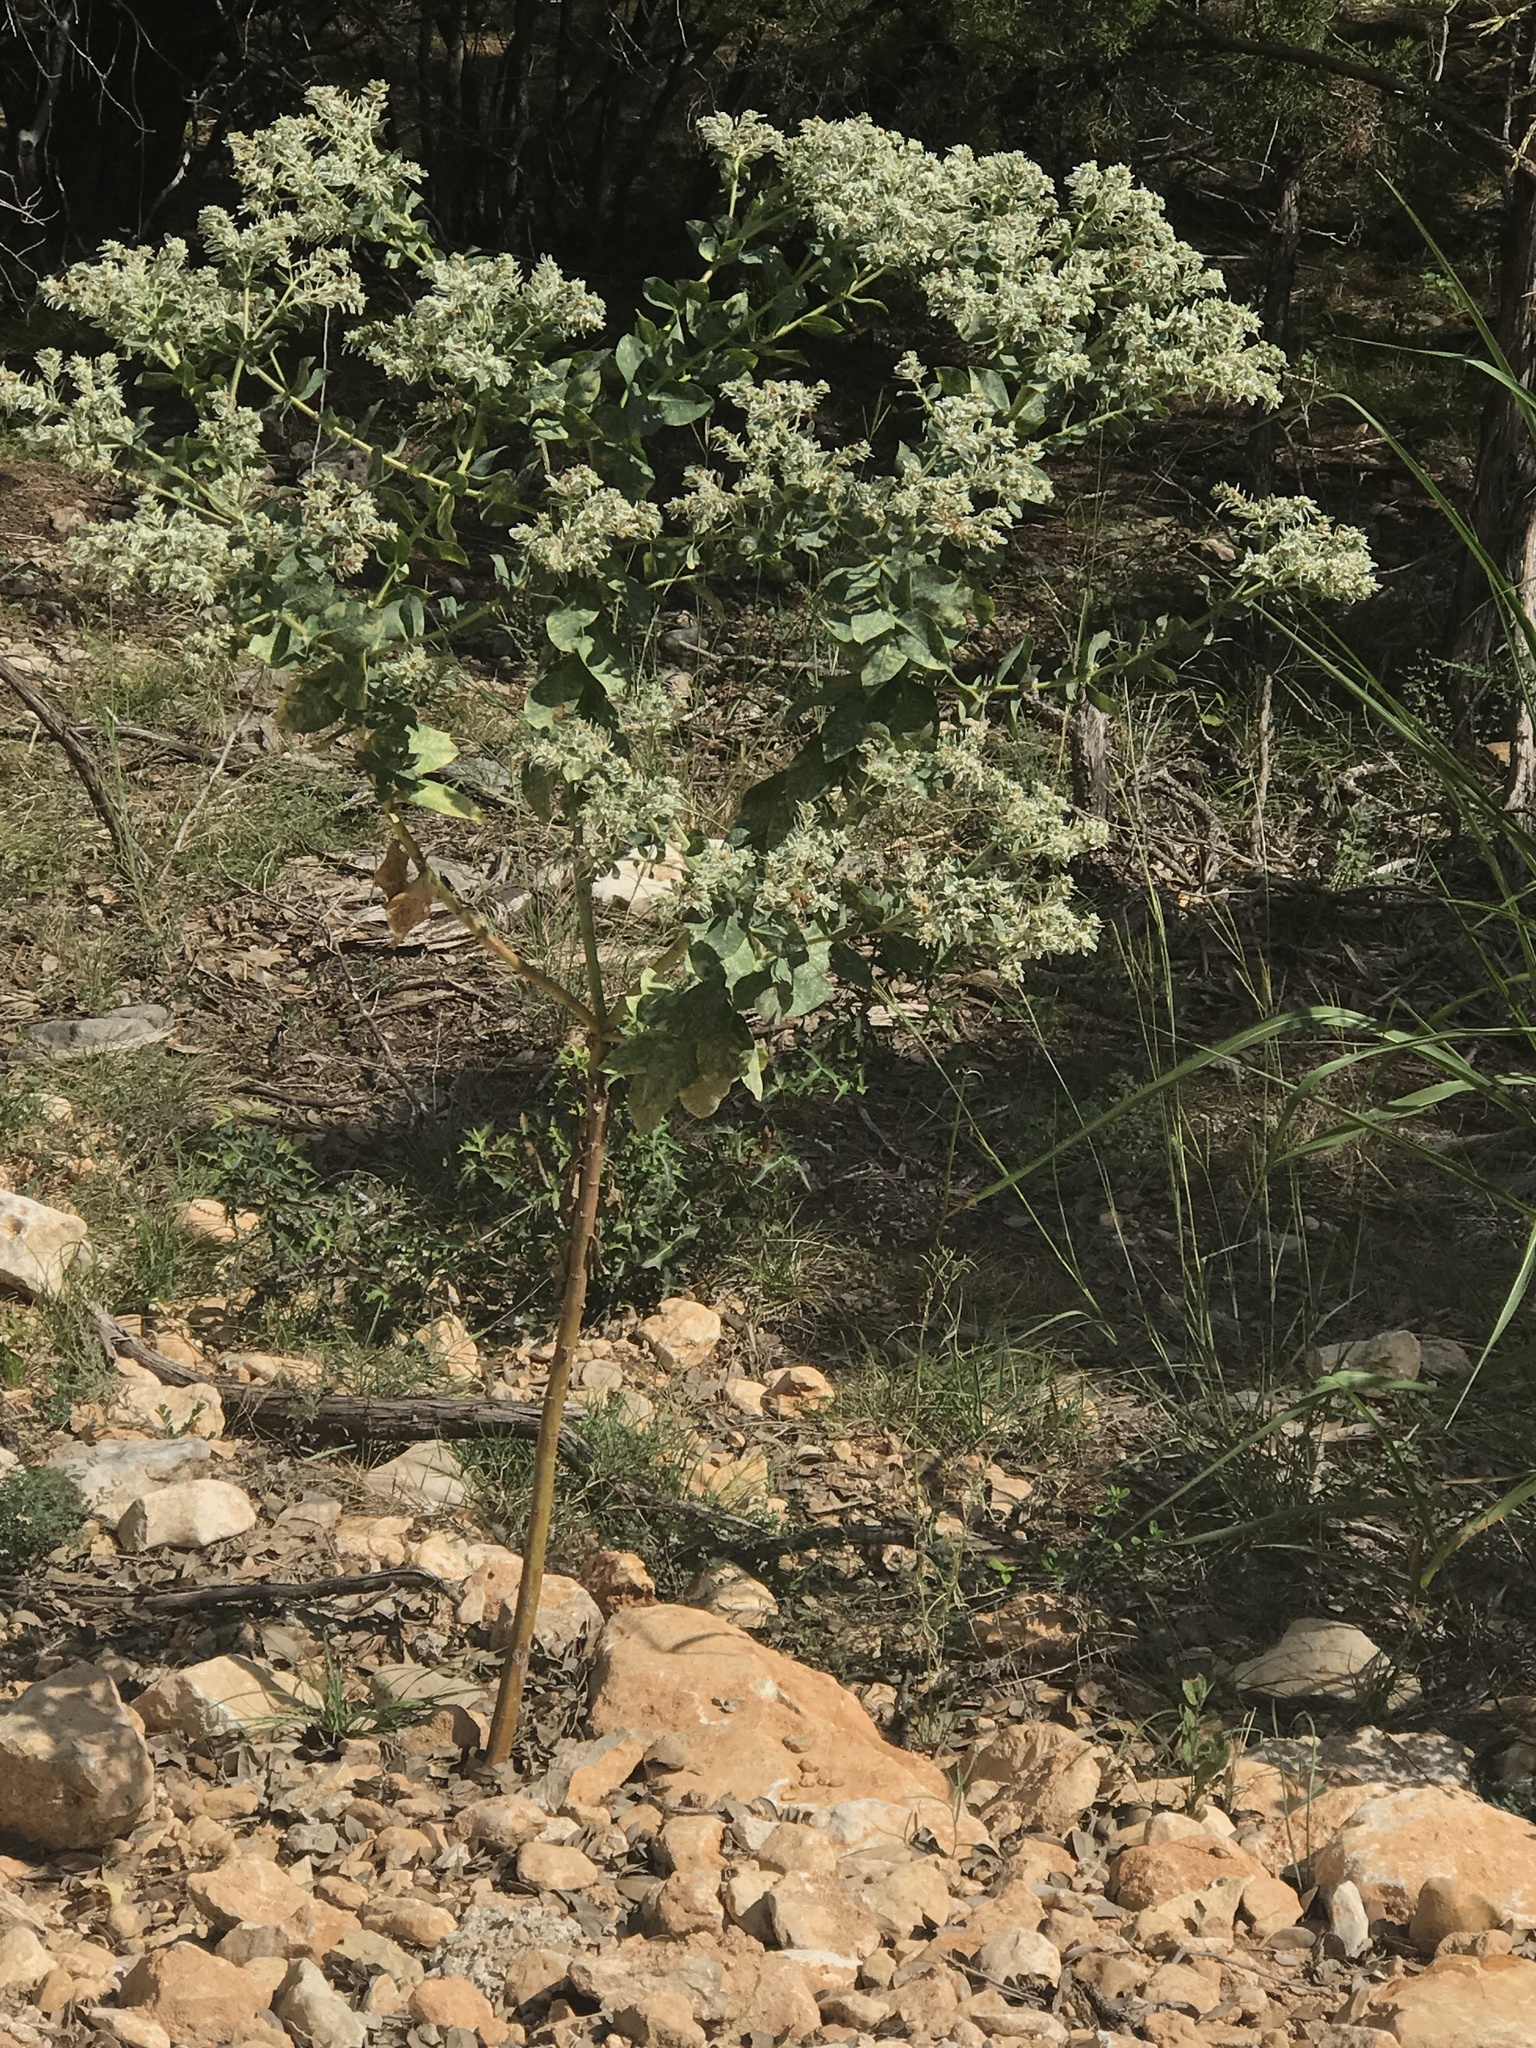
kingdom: Plantae
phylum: Tracheophyta
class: Magnoliopsida
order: Malpighiales
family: Euphorbiaceae
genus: Euphorbia
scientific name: Euphorbia marginata
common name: Ghostweed
